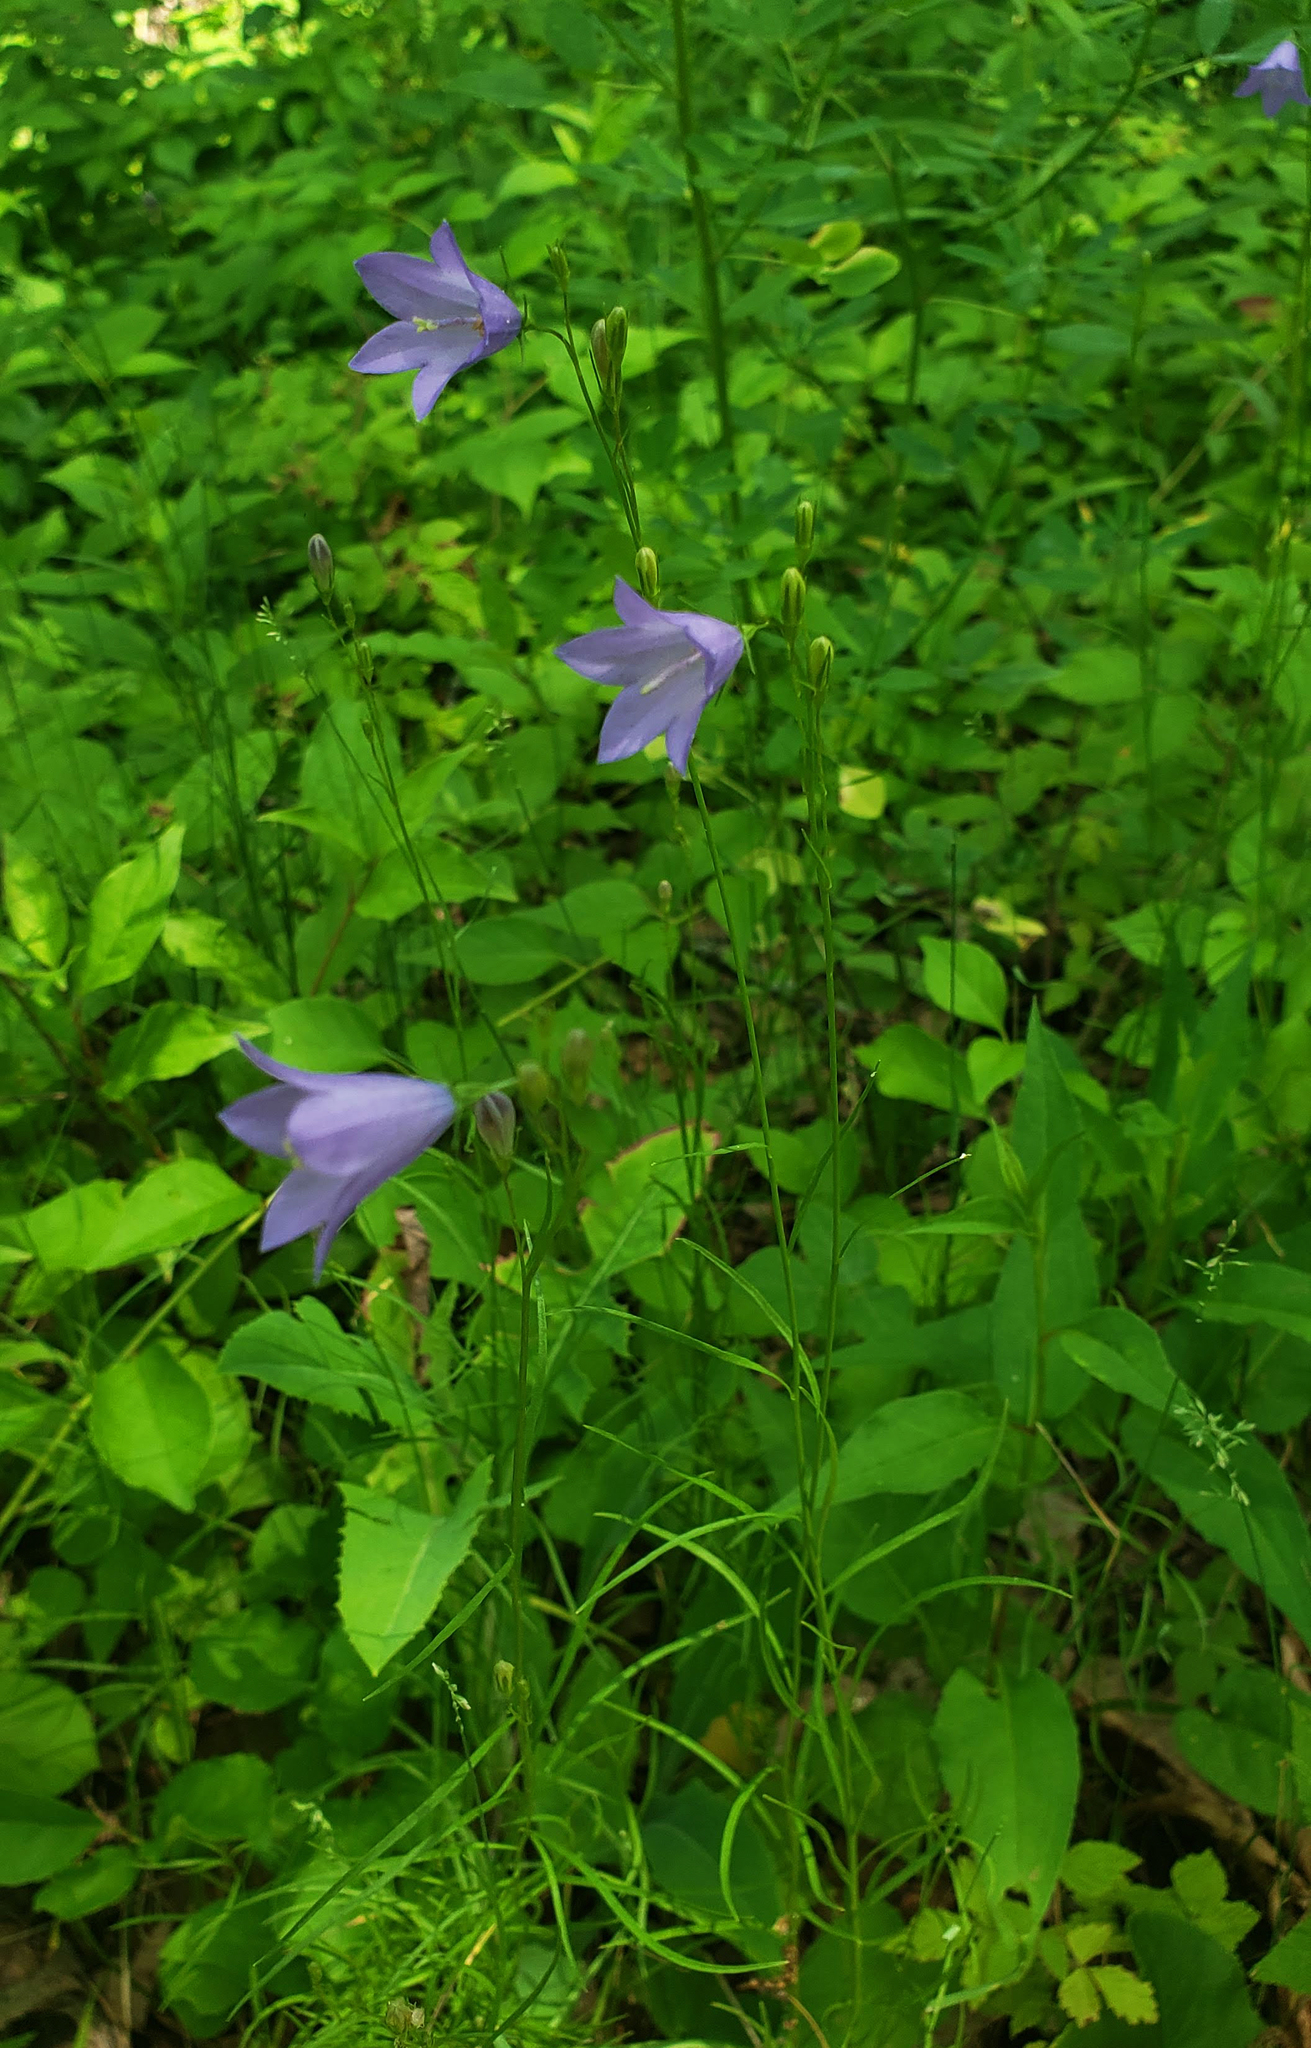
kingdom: Plantae
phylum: Tracheophyta
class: Magnoliopsida
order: Asterales
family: Campanulaceae
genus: Campanula
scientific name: Campanula intercedens
